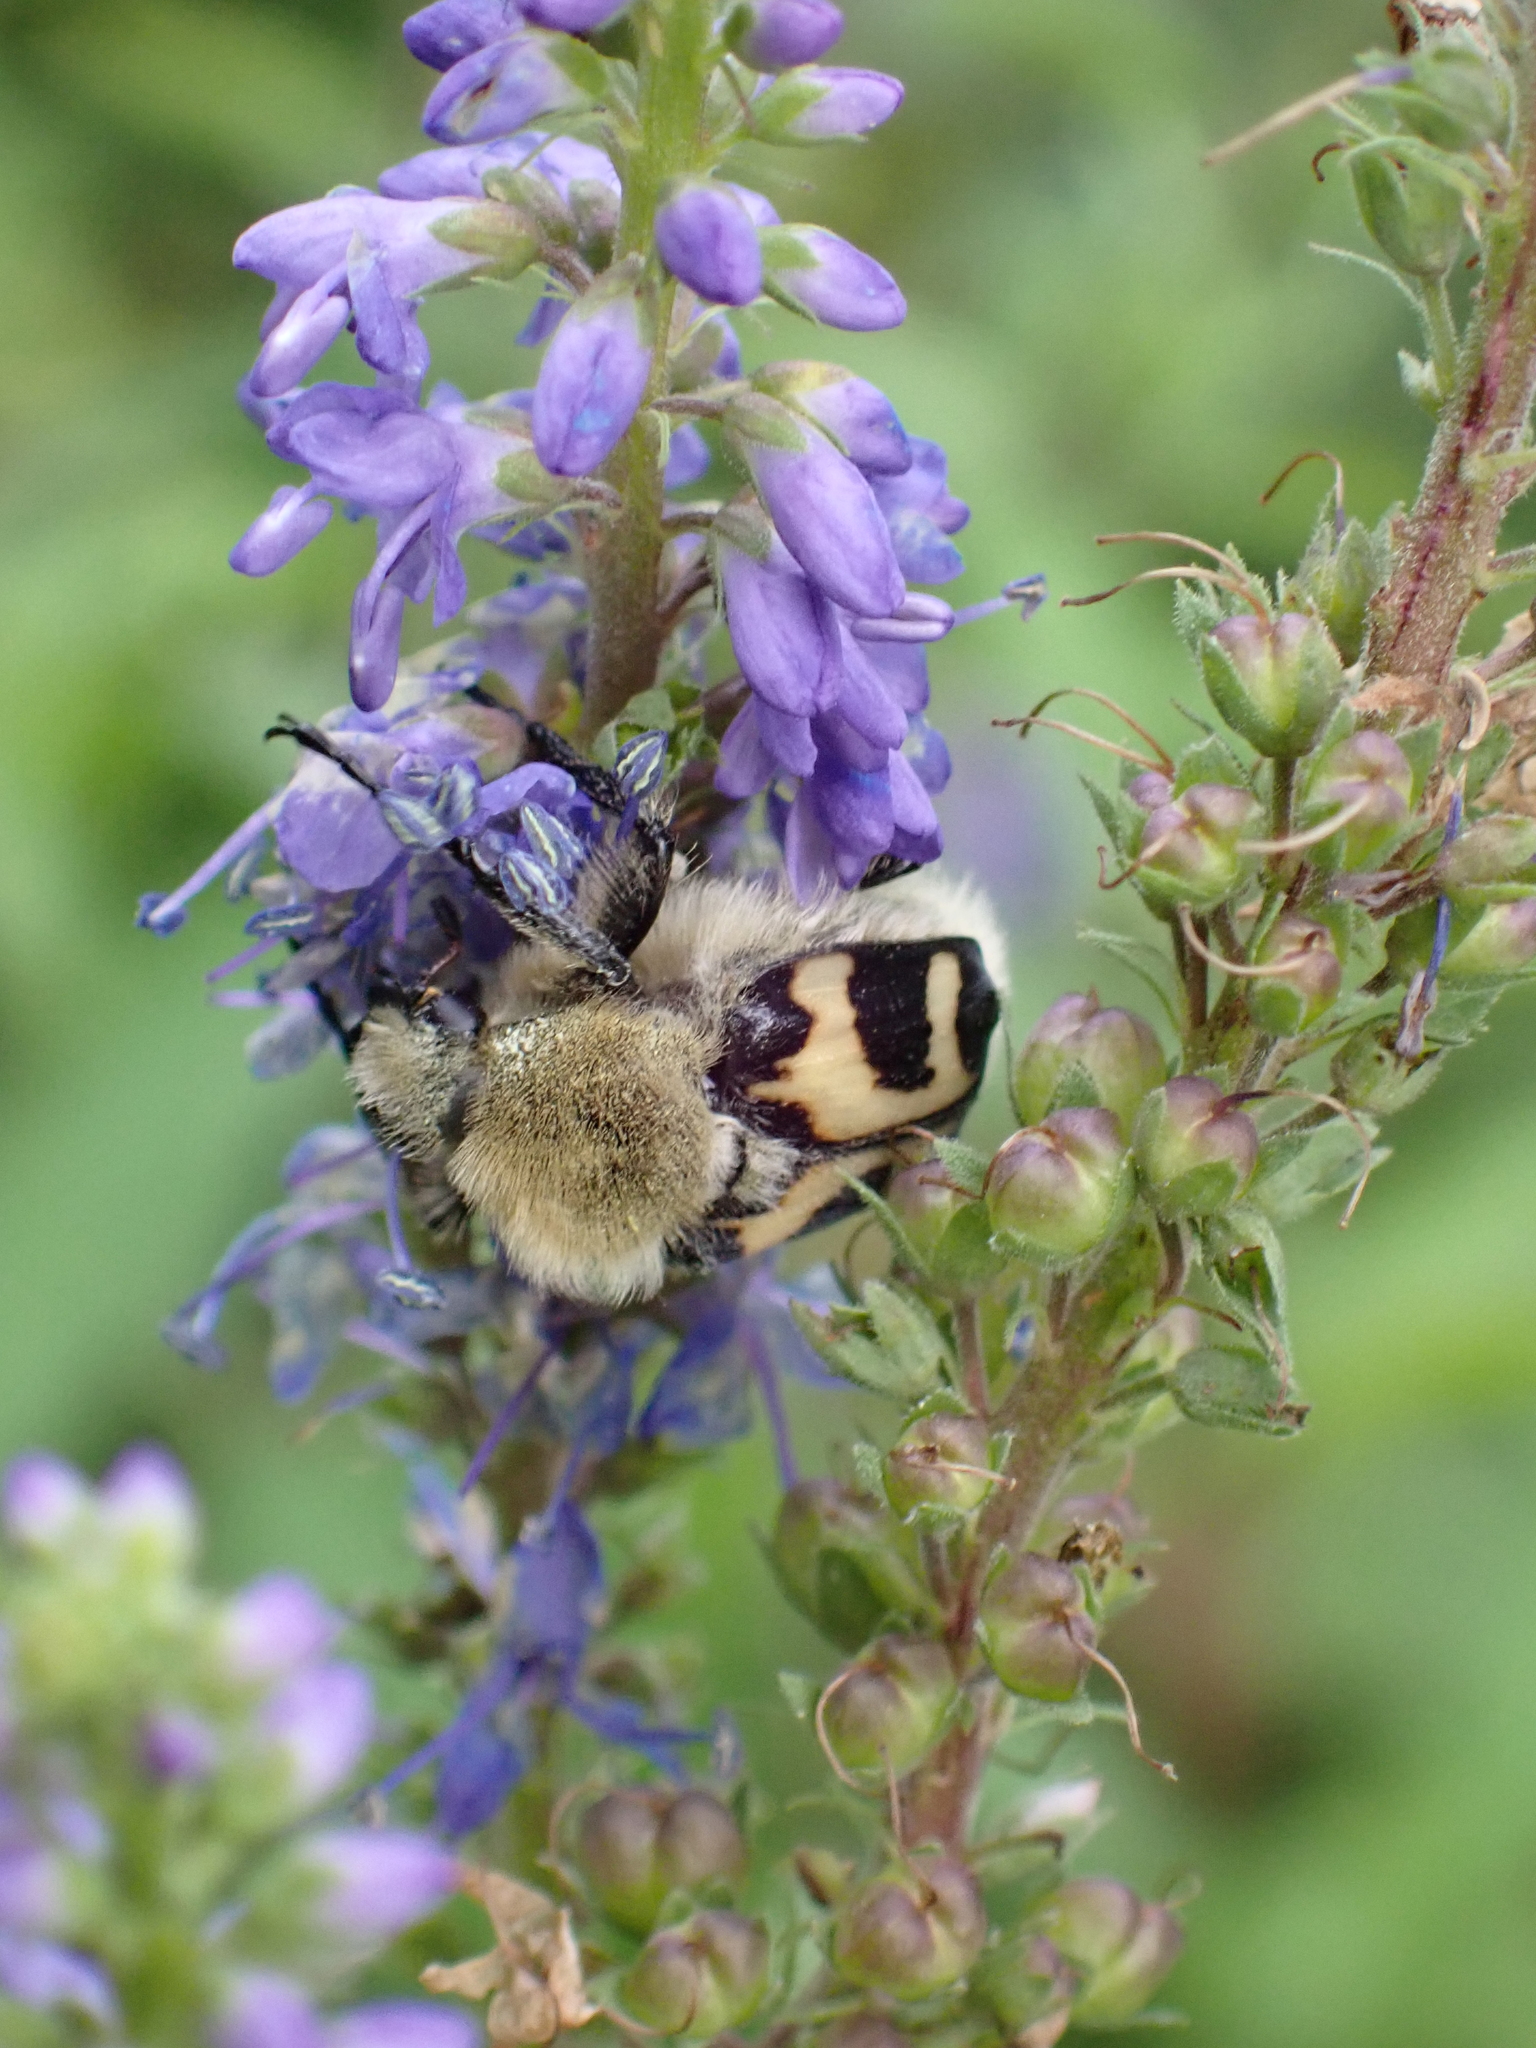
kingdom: Animalia
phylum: Arthropoda
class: Insecta
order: Coleoptera
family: Scarabaeidae
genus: Trichius
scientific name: Trichius fasciatus
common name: Bee beetle
